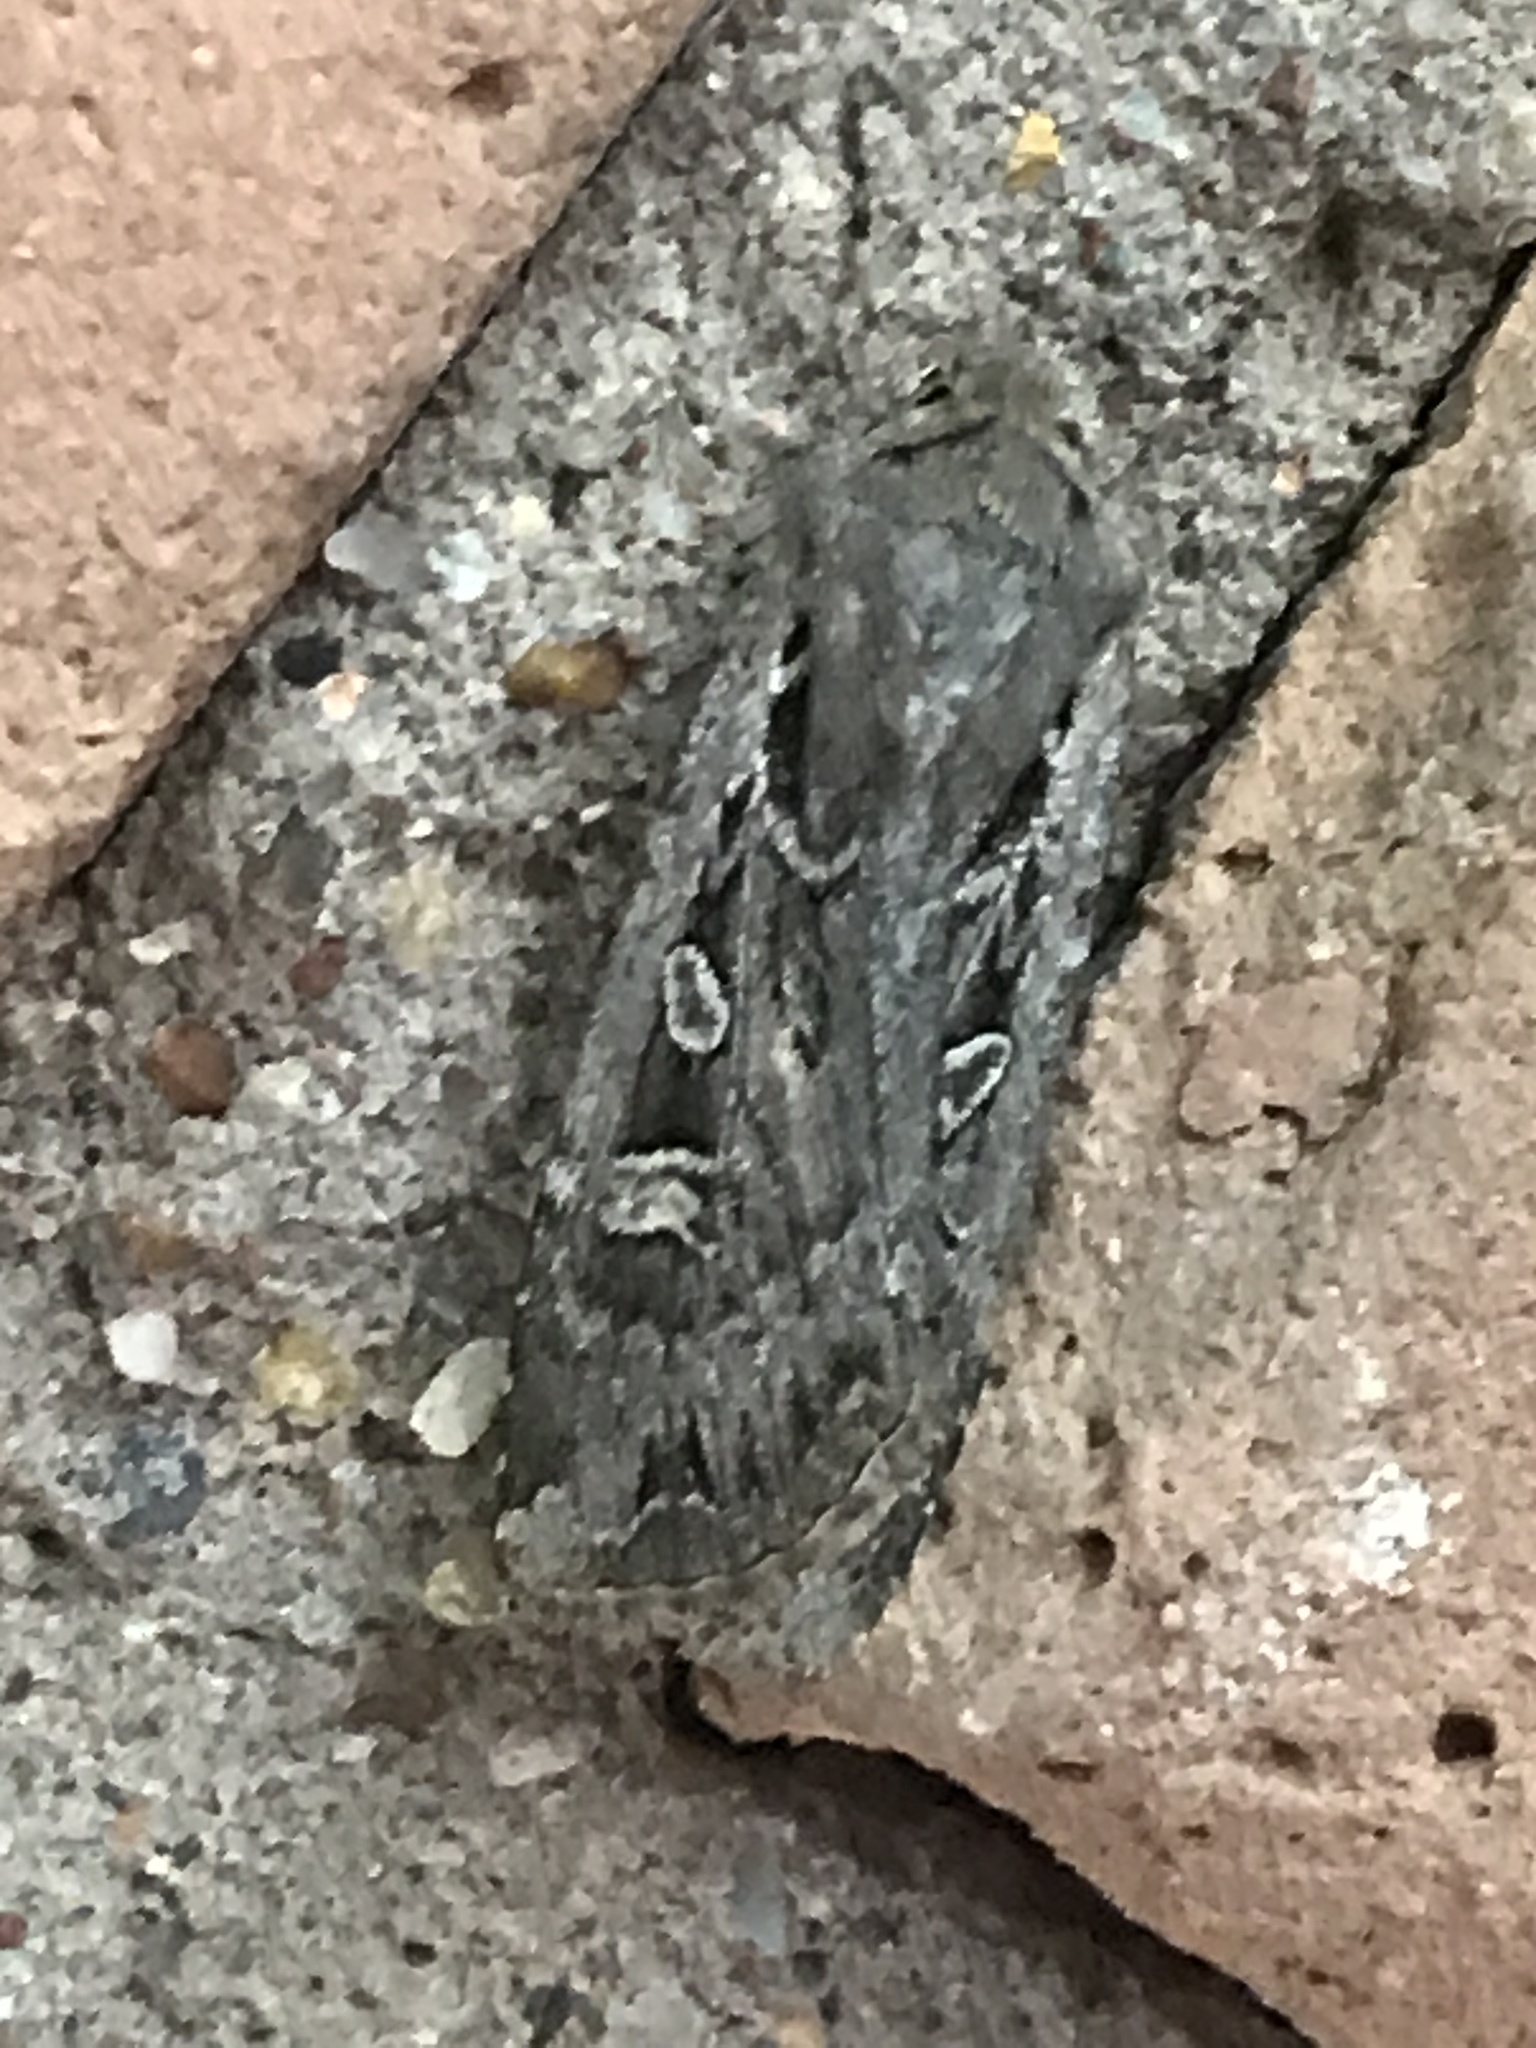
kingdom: Animalia
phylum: Arthropoda
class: Insecta
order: Lepidoptera
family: Noctuidae
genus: Euxoa
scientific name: Euxoa auxiliaris
